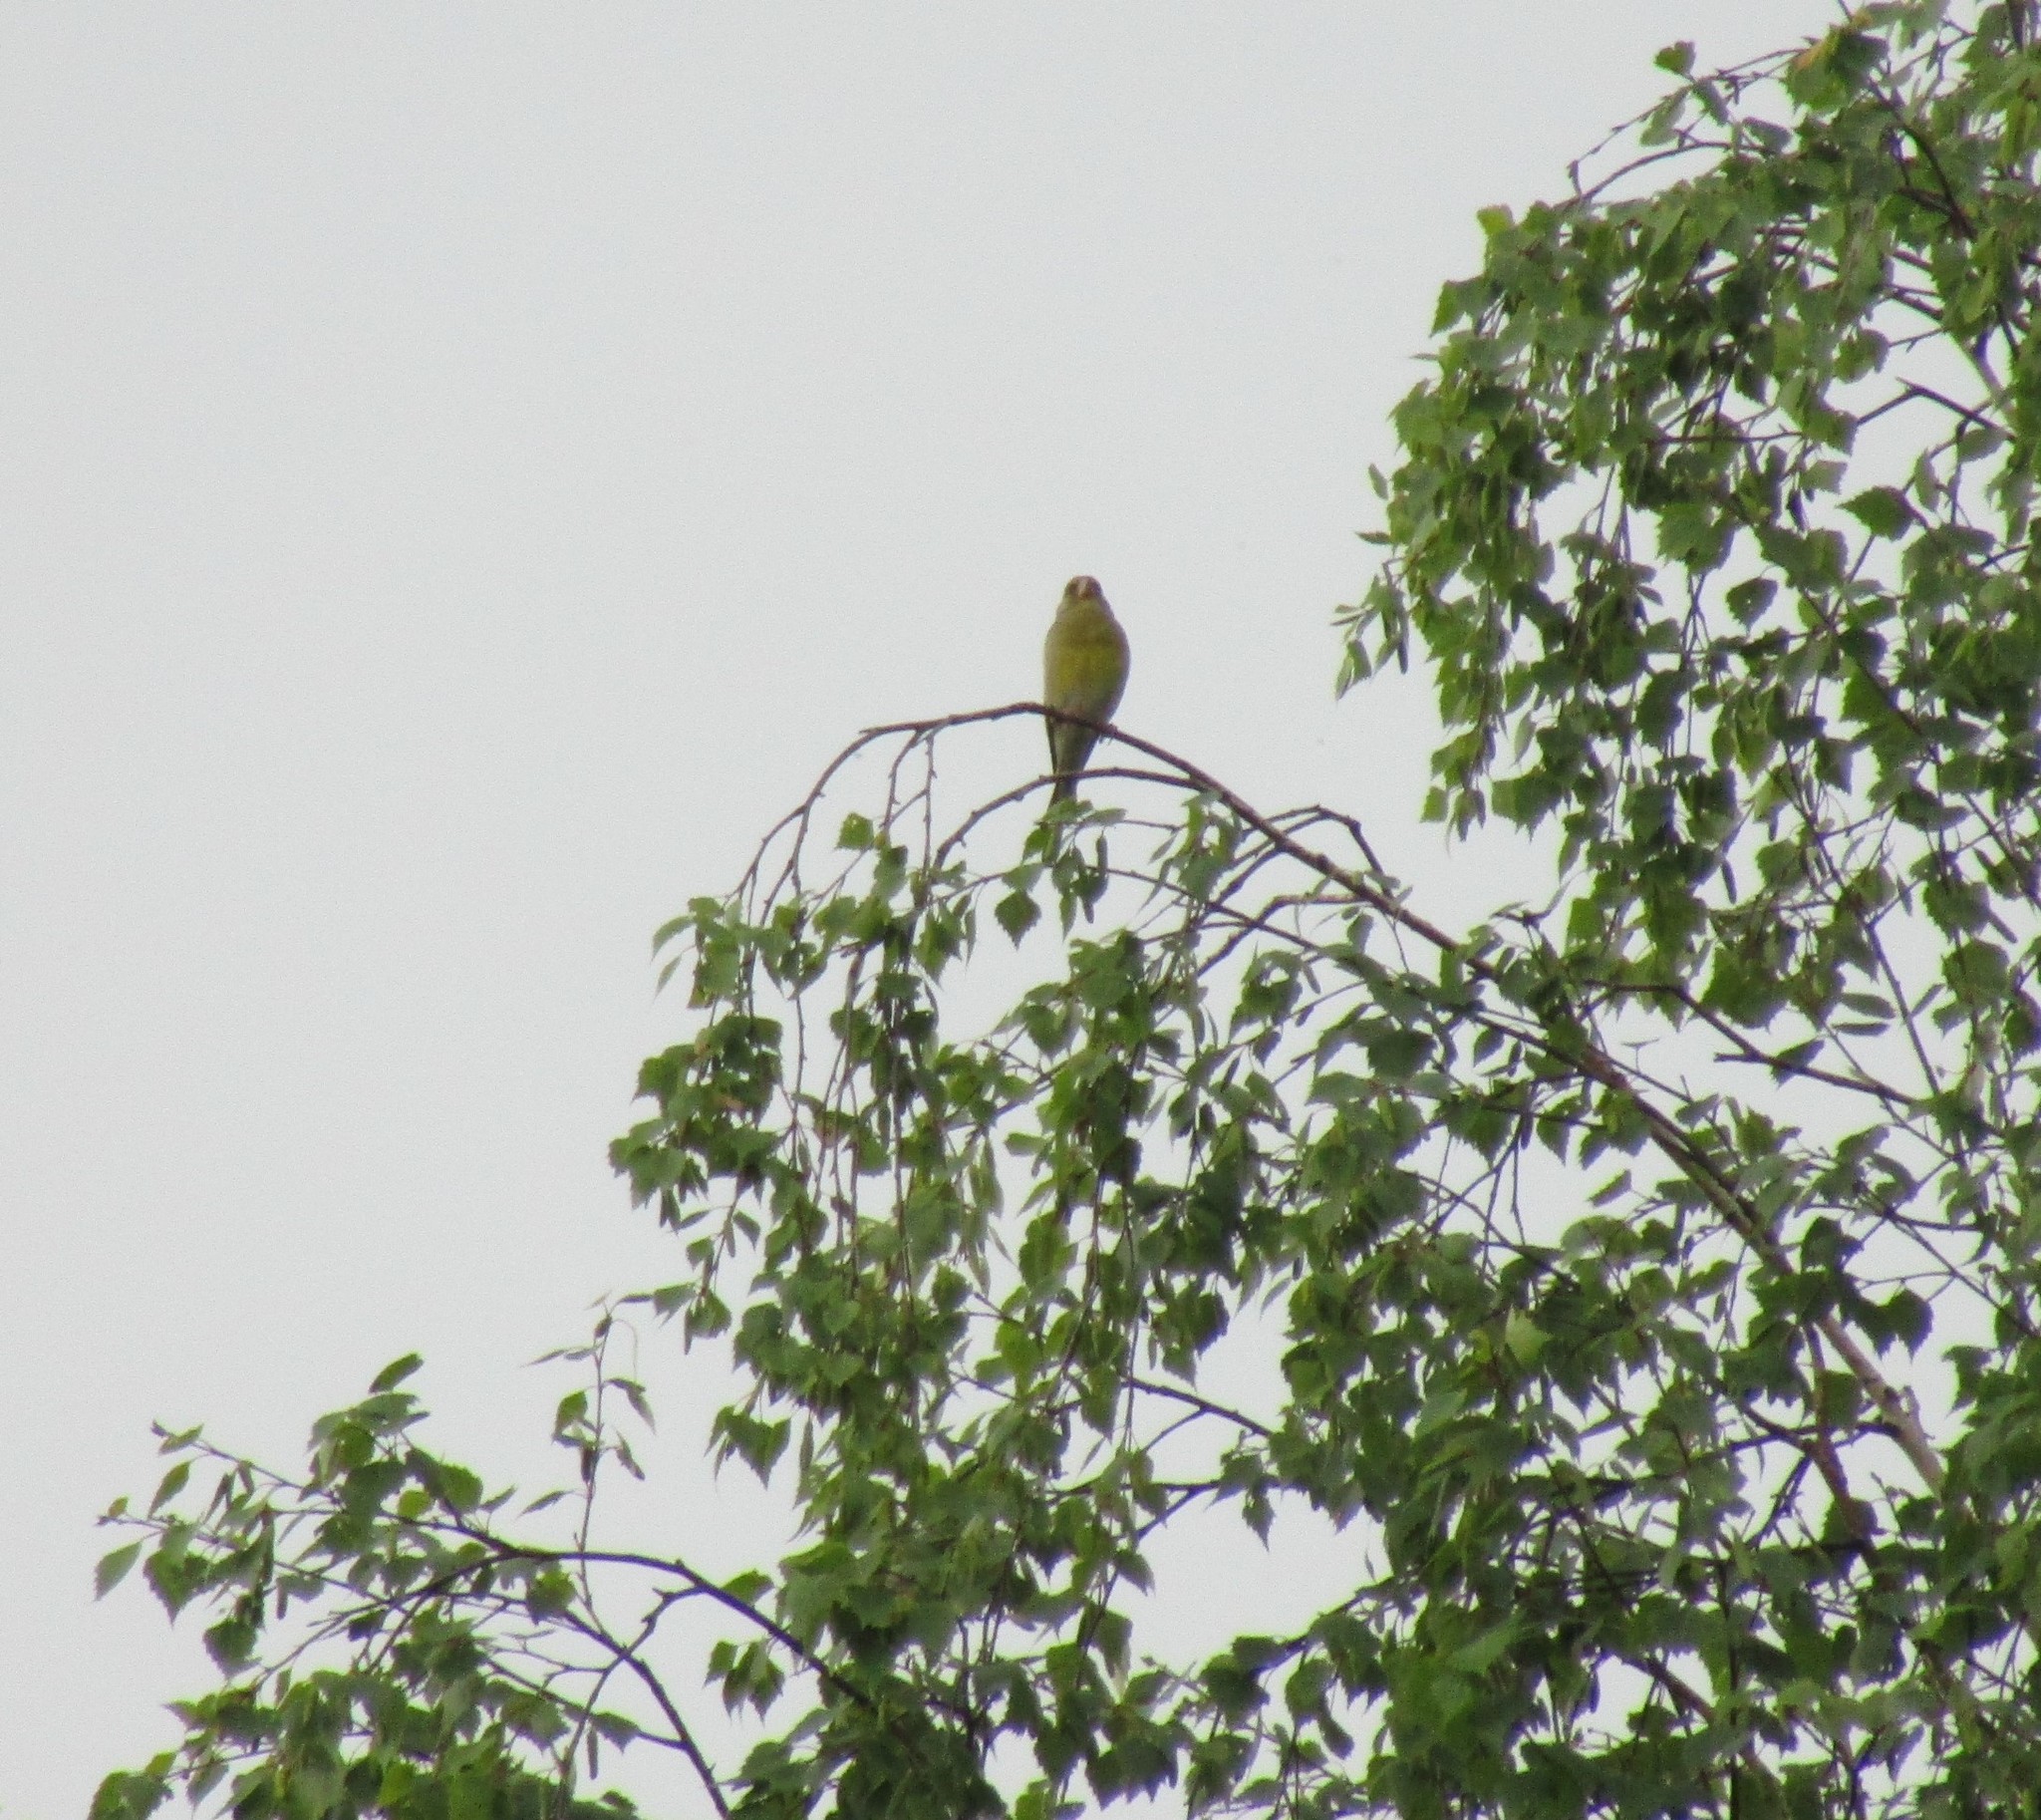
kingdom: Plantae
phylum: Tracheophyta
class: Liliopsida
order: Poales
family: Poaceae
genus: Chloris
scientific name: Chloris chloris
